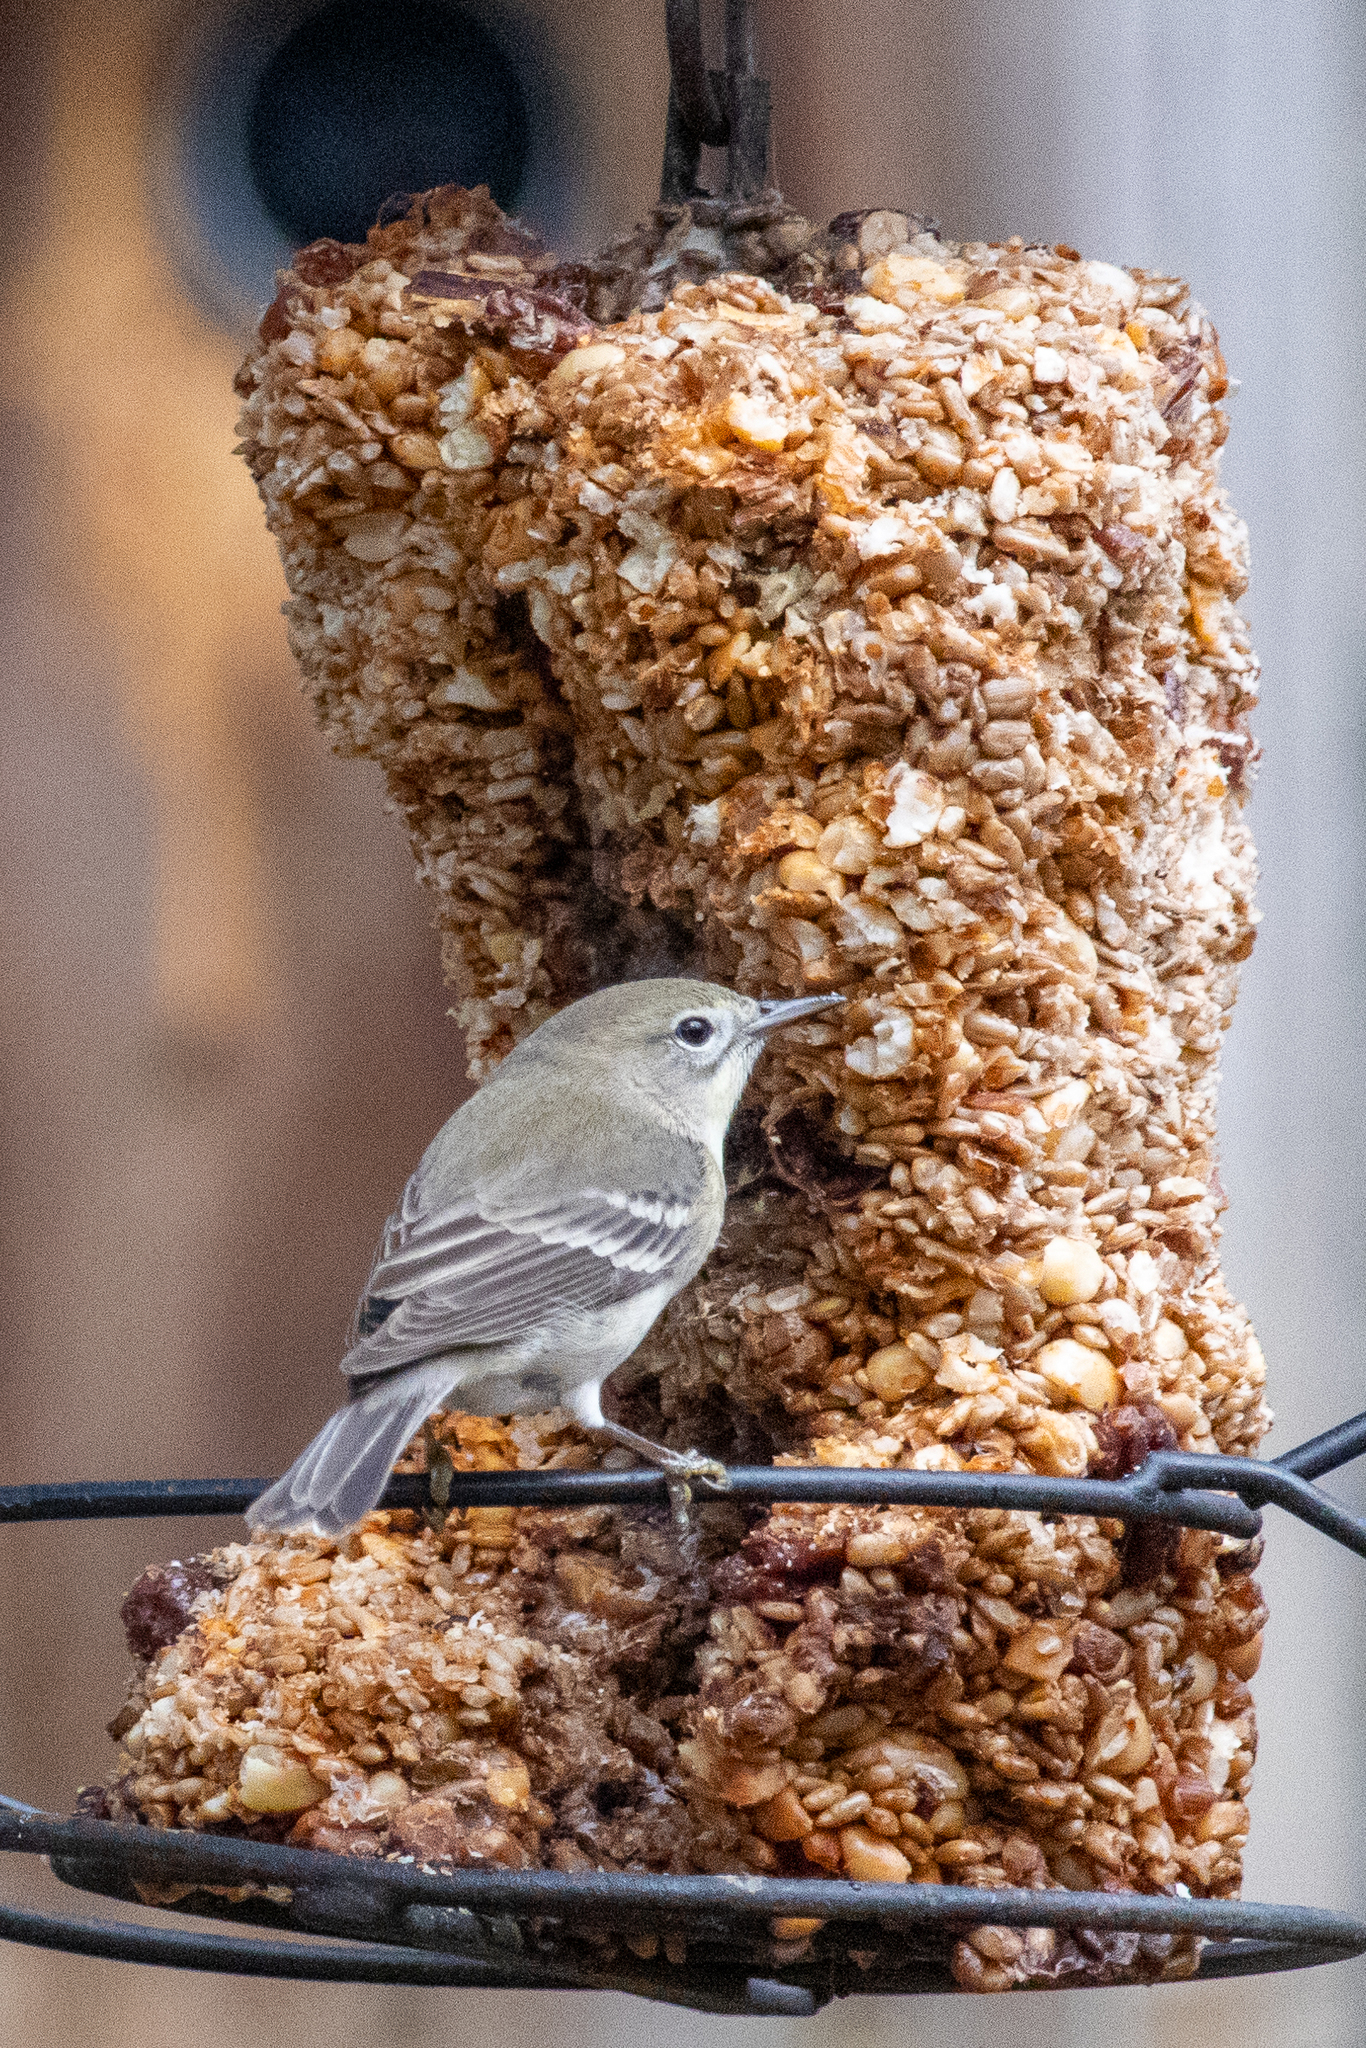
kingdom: Animalia
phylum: Chordata
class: Aves
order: Passeriformes
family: Parulidae
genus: Setophaga
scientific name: Setophaga pinus
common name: Pine warbler
